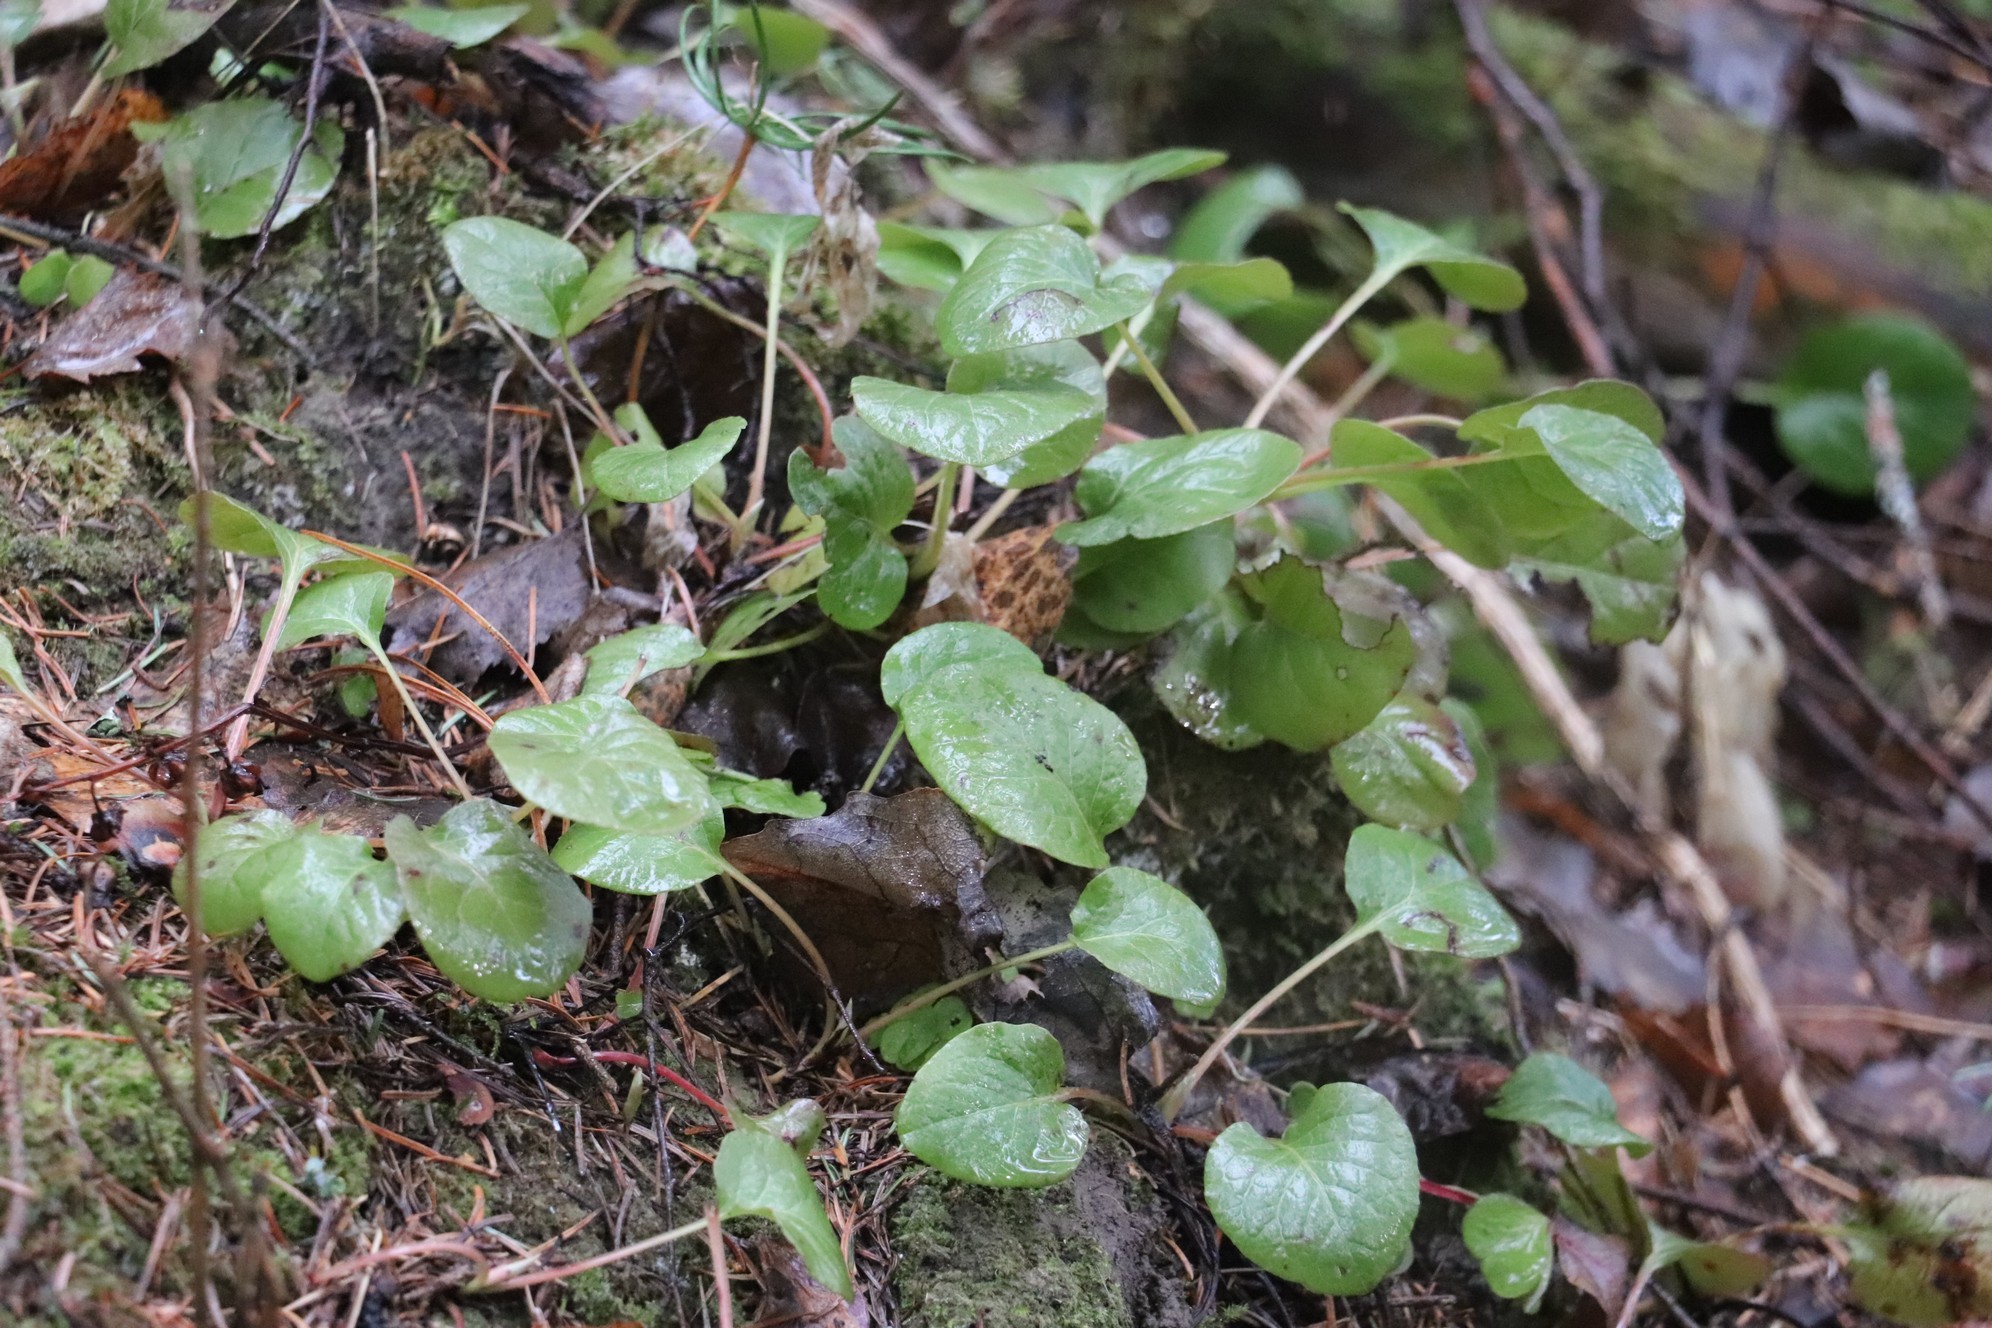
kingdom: Plantae
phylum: Tracheophyta
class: Magnoliopsida
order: Ericales
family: Ericaceae
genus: Pyrola
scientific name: Pyrola rotundifolia
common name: Round-leaved wintergreen
